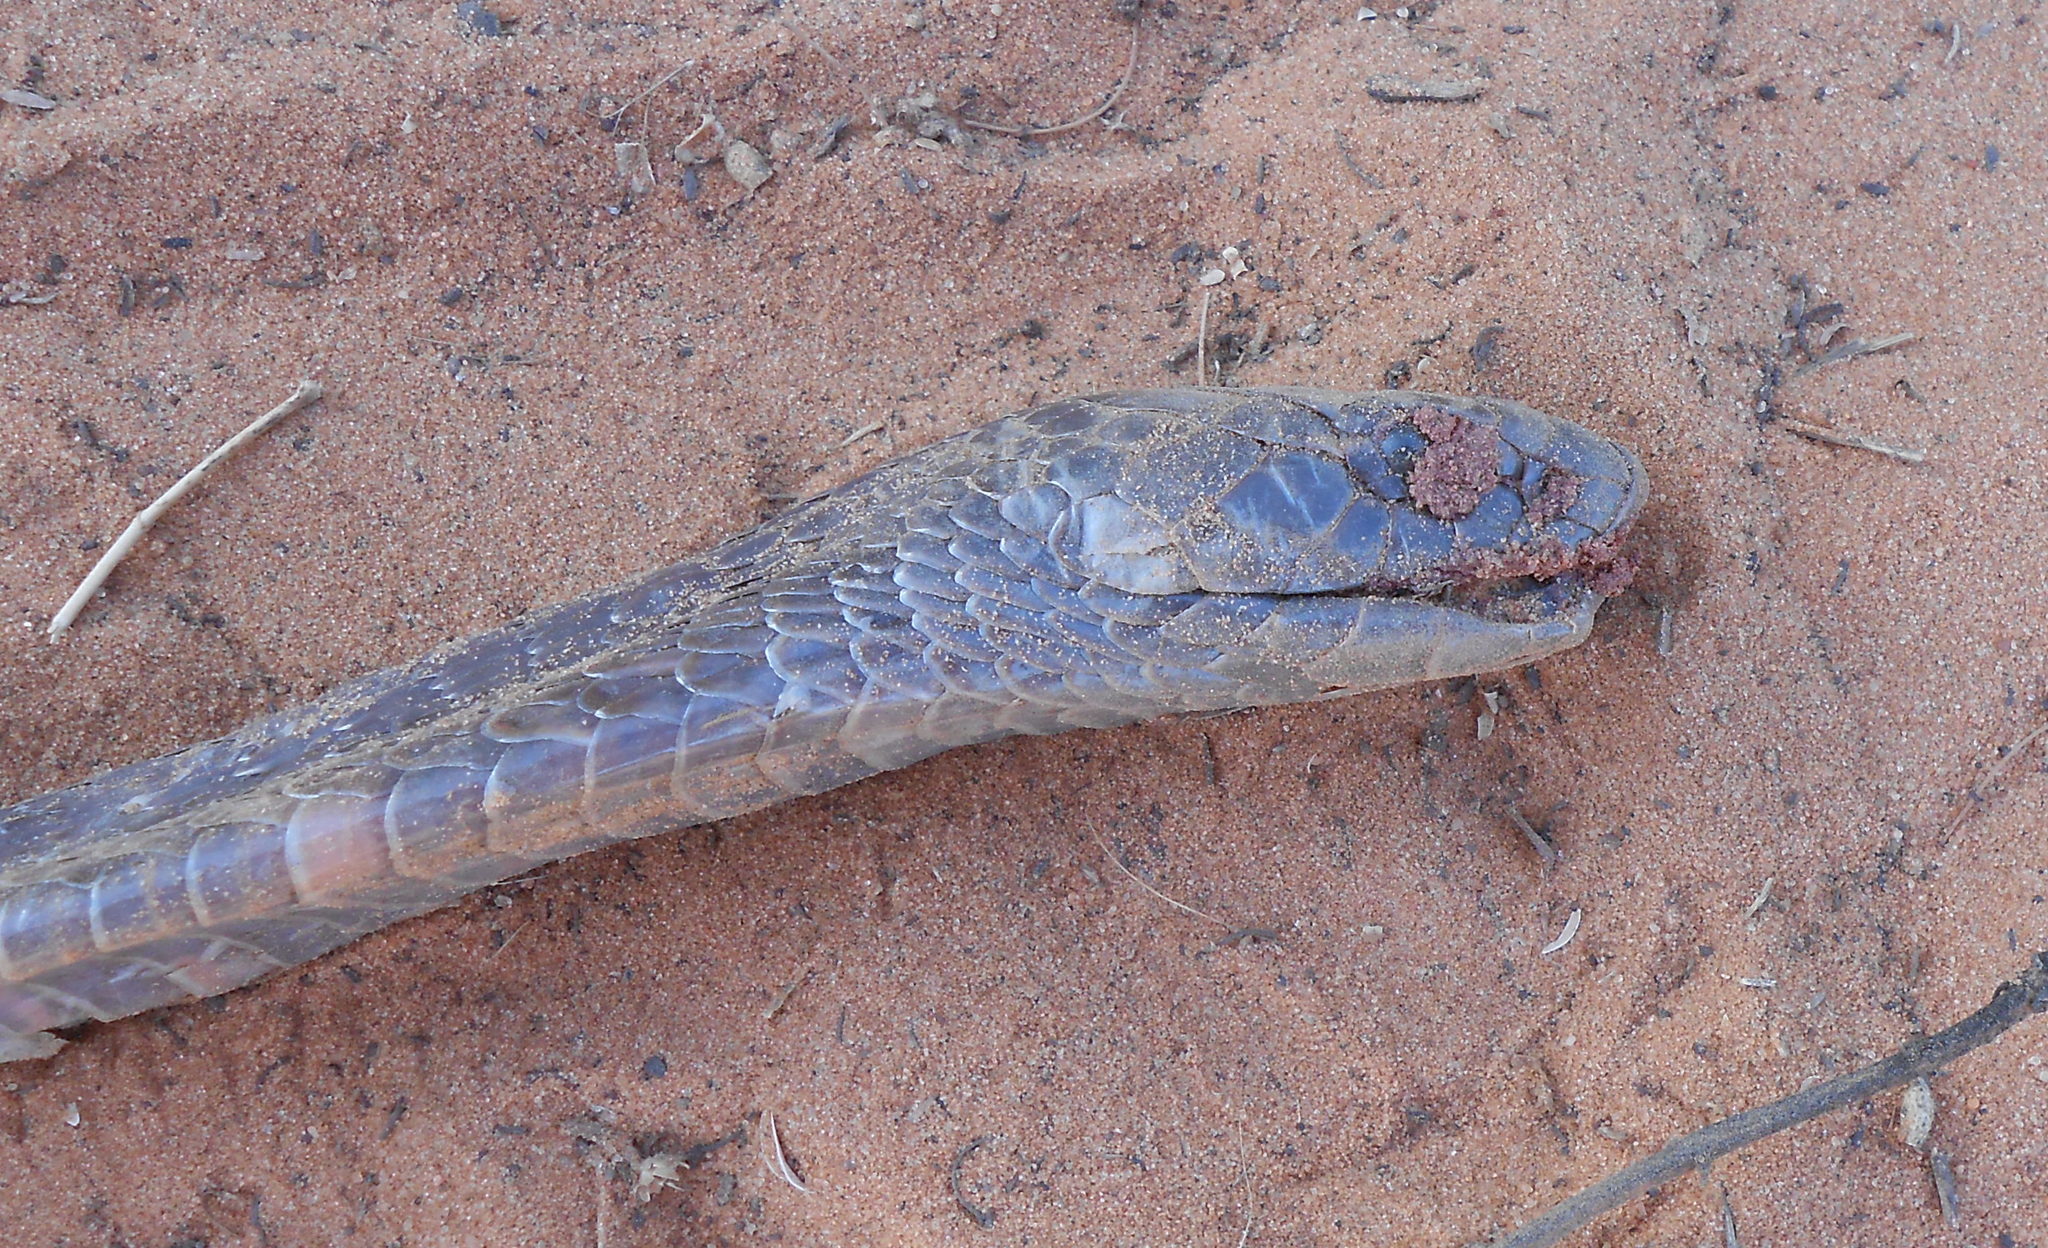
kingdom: Animalia
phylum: Chordata
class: Squamata
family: Elapidae
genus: Naja
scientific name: Naja senegalensis
